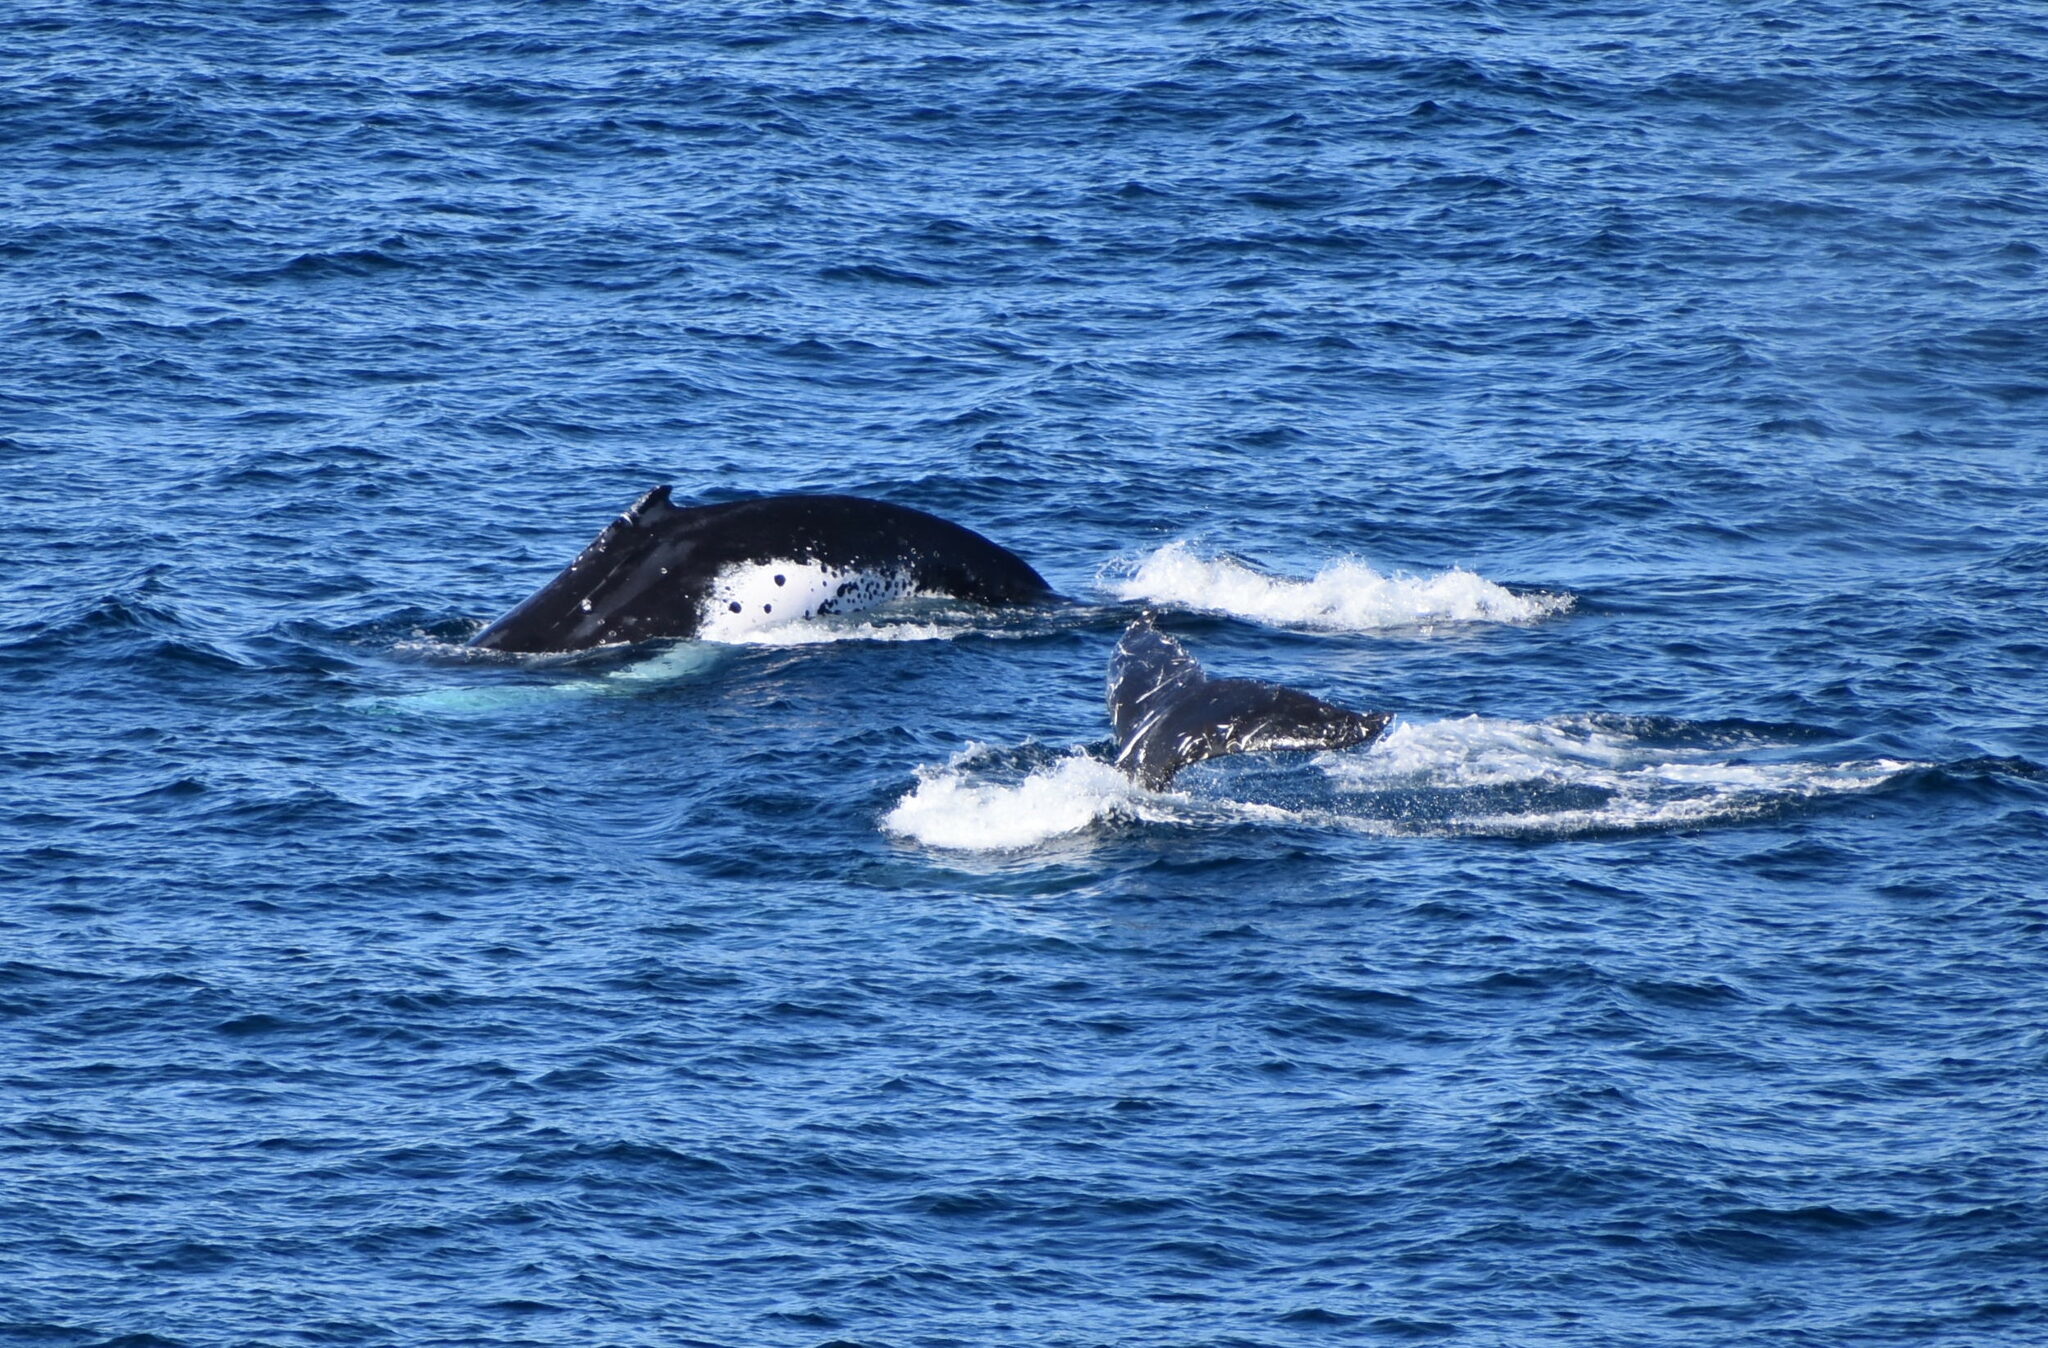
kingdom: Animalia
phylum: Chordata
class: Mammalia
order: Cetacea
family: Balaenopteridae
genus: Megaptera
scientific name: Megaptera novaeangliae
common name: Humpback whale
